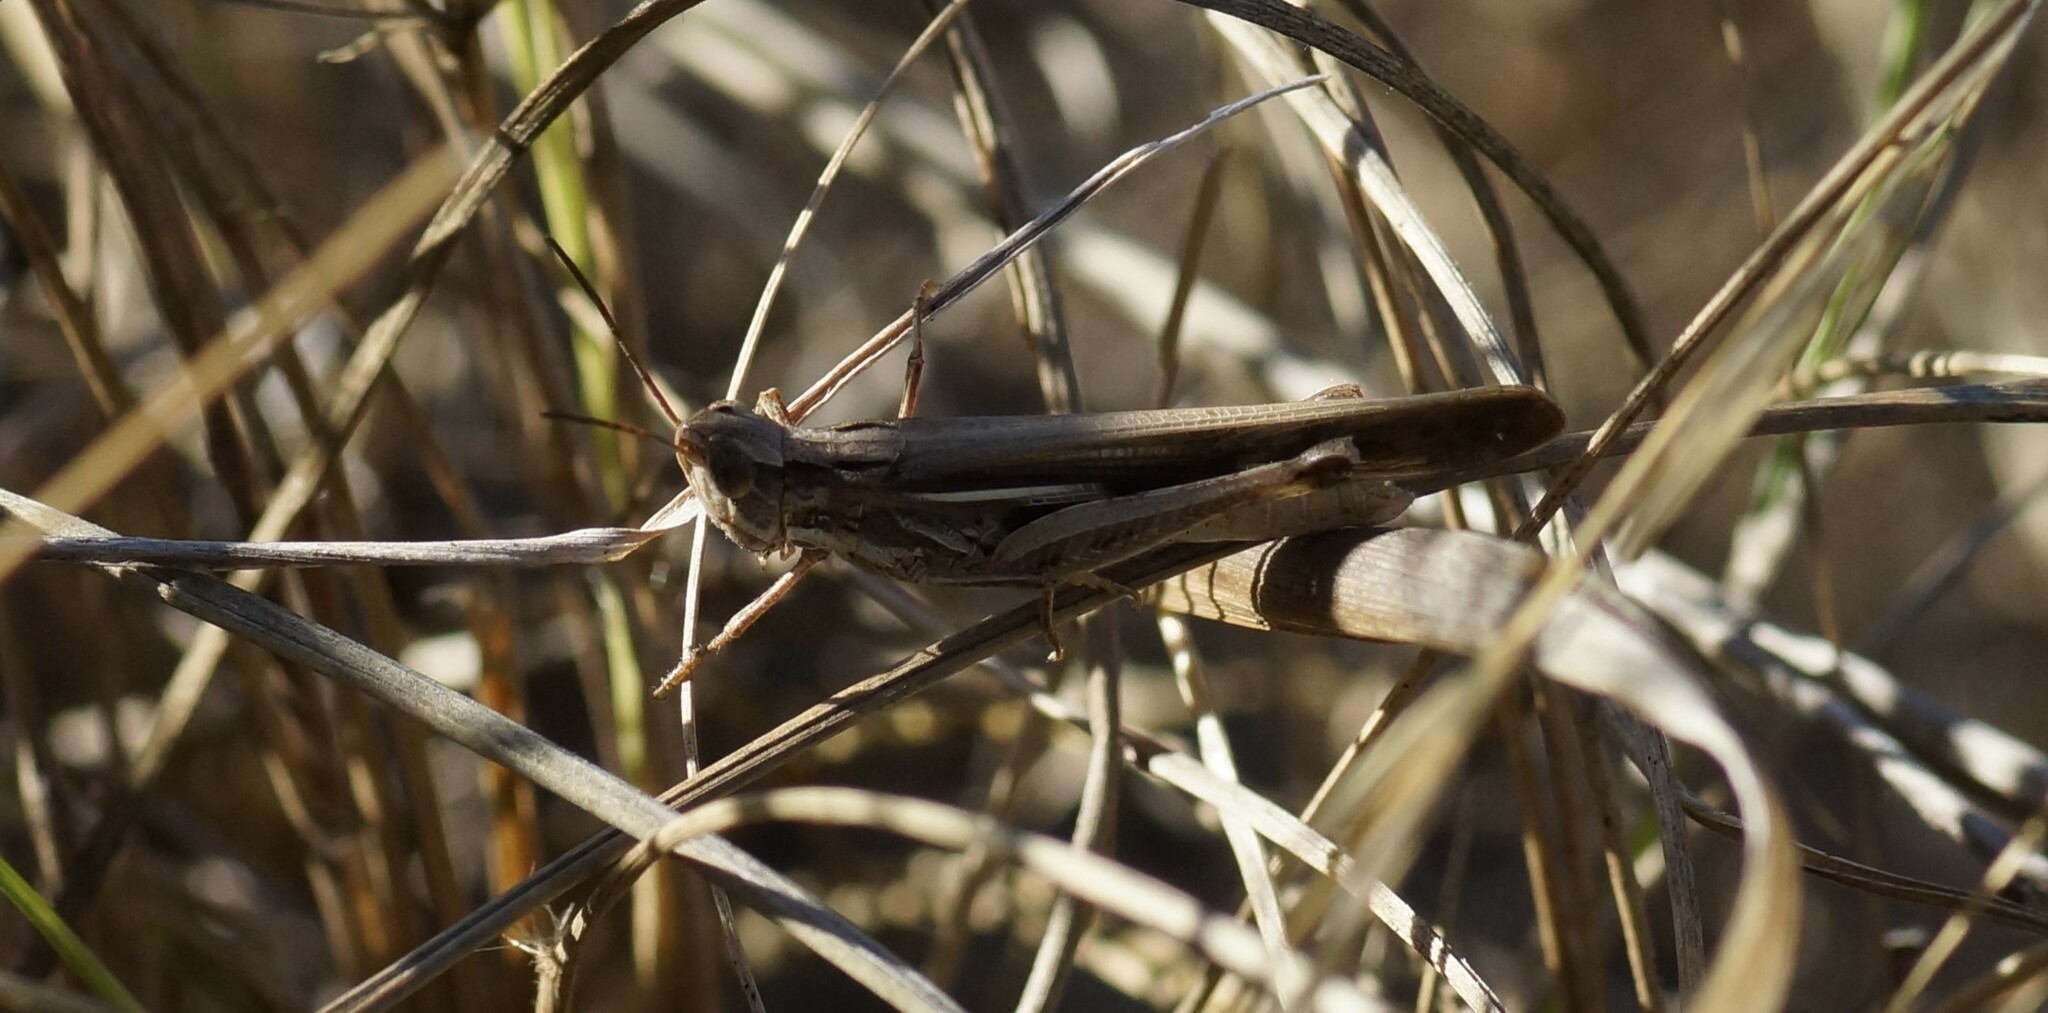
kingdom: Animalia
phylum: Arthropoda
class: Insecta
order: Orthoptera
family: Acrididae
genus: Aiolopus
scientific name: Aiolopus thalassinus
